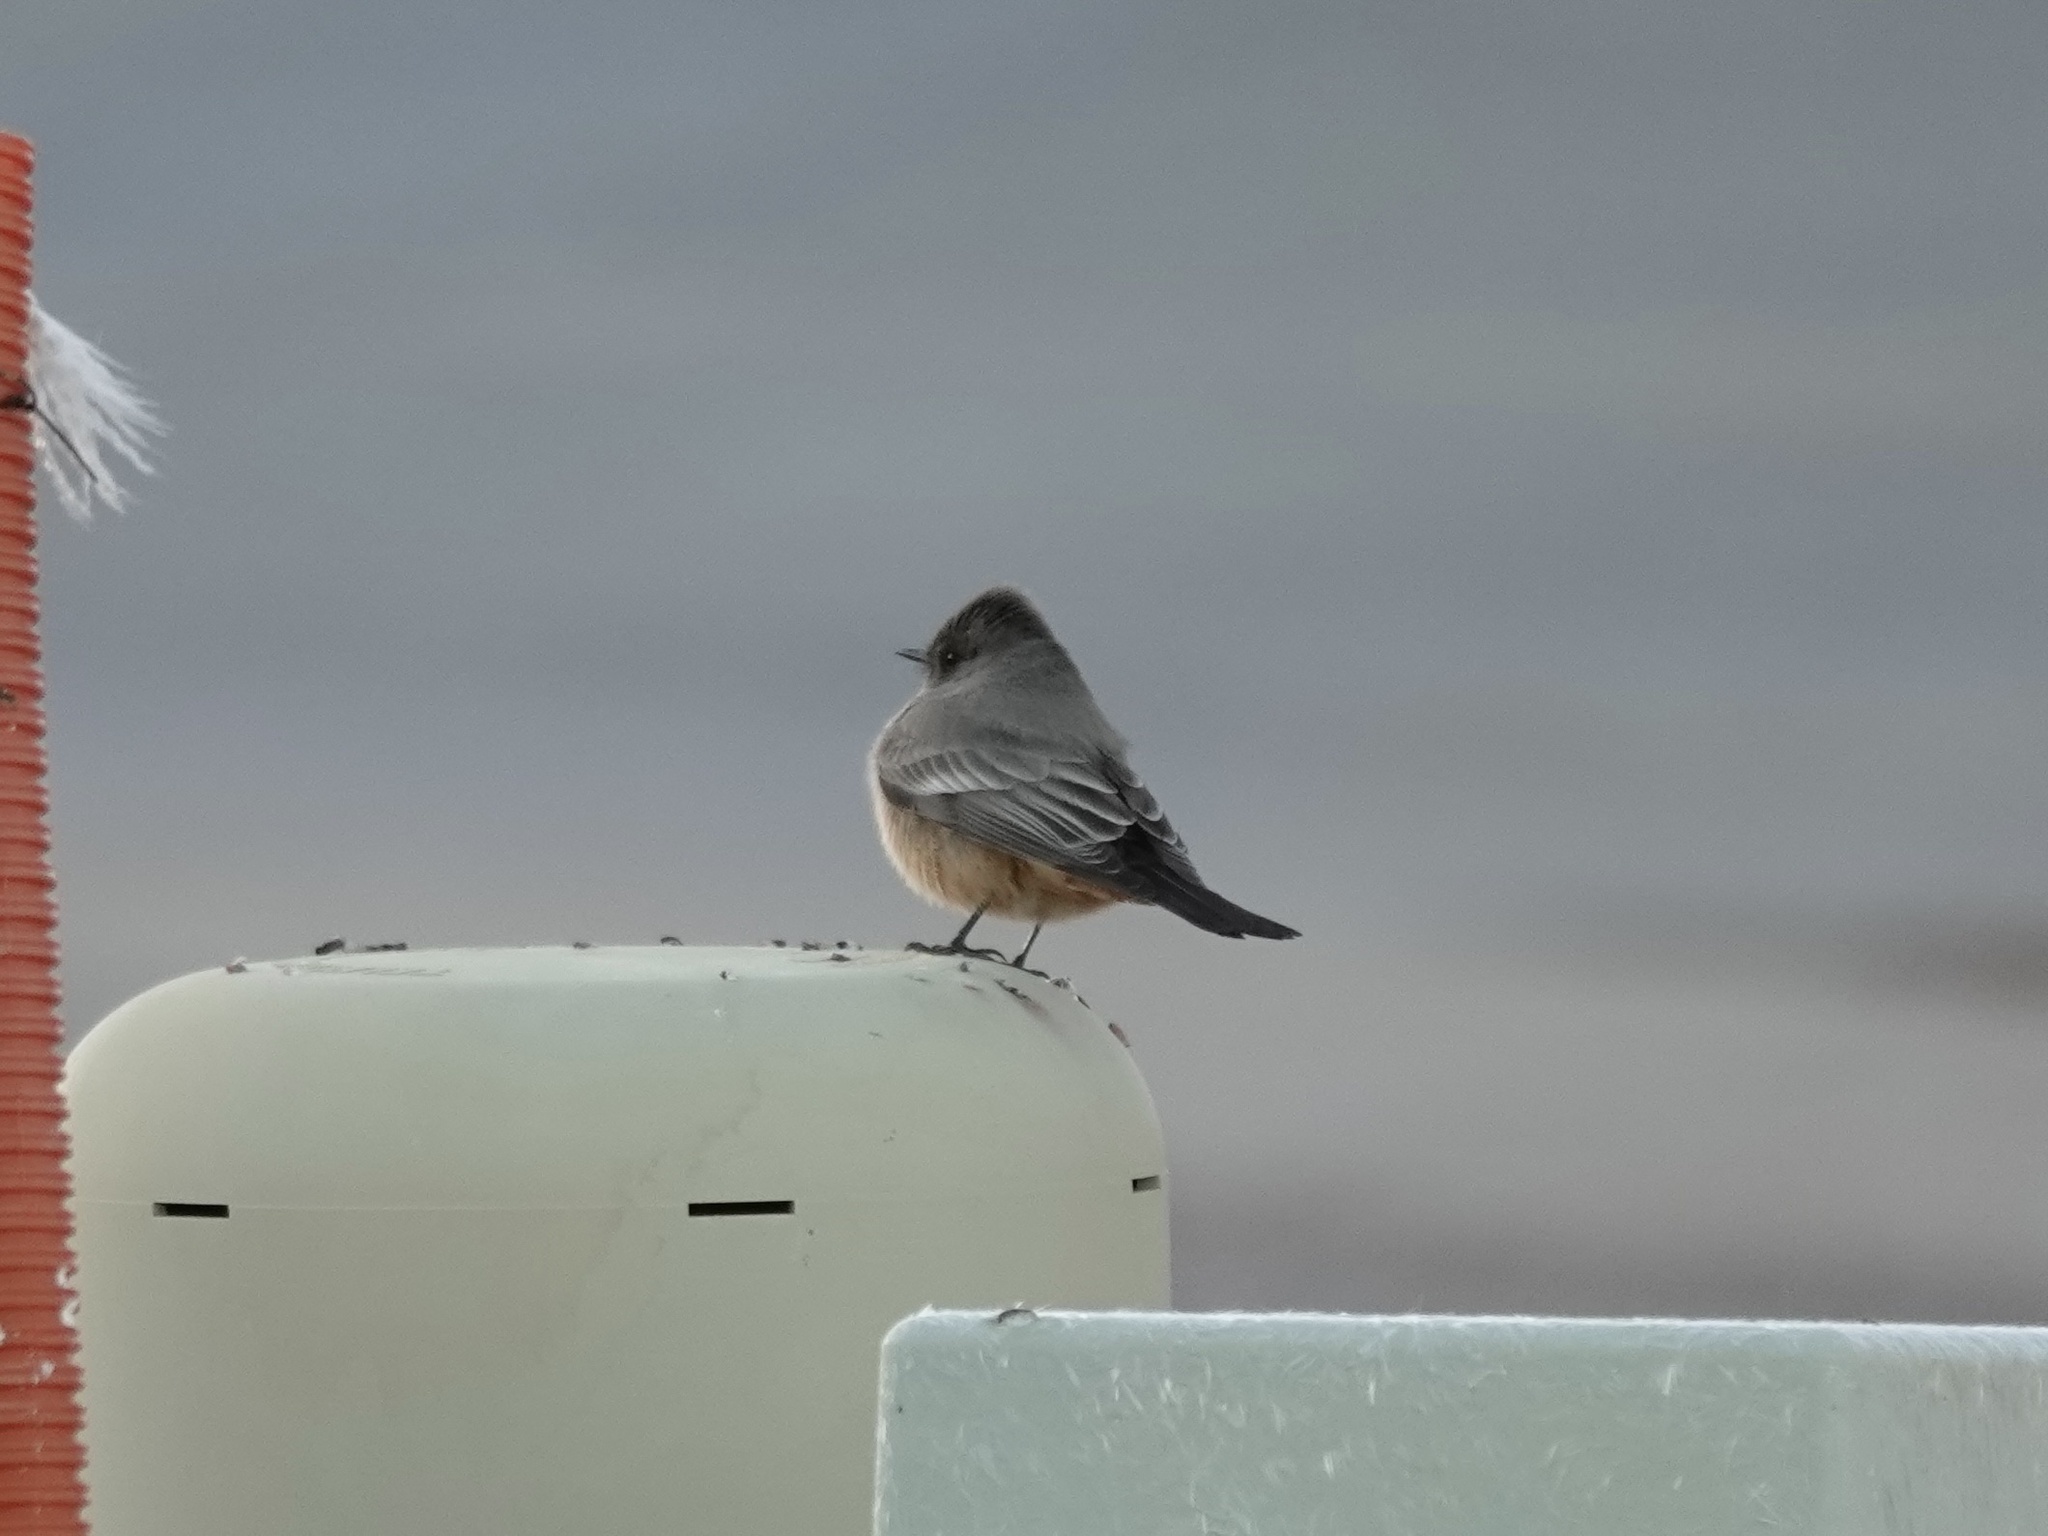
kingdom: Animalia
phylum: Chordata
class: Aves
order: Passeriformes
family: Tyrannidae
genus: Sayornis
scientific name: Sayornis saya
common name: Say's phoebe
